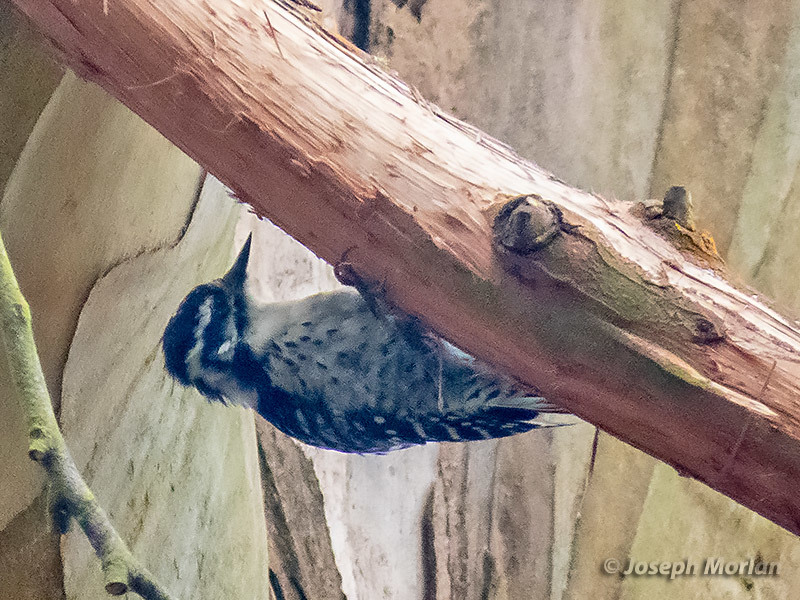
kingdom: Animalia
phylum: Chordata
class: Aves
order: Piciformes
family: Picidae
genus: Dryobates
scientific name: Dryobates nuttallii
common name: Nuttall's woodpecker
